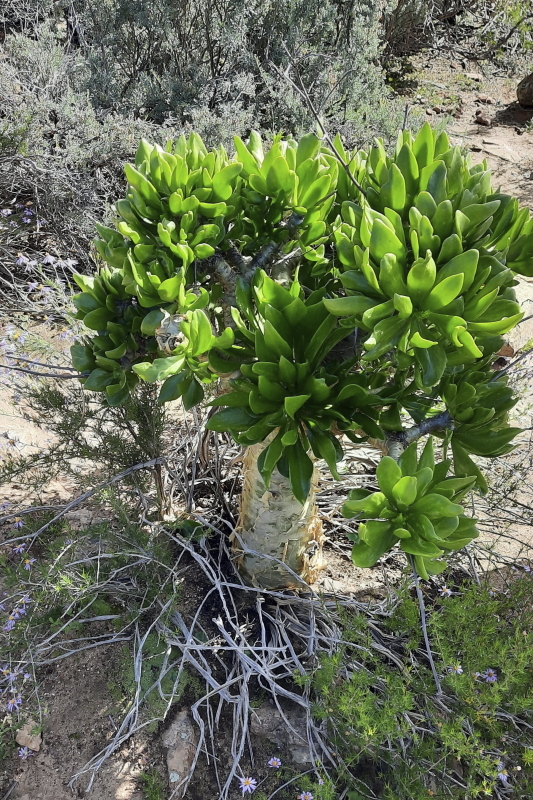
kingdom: Plantae
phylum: Tracheophyta
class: Magnoliopsida
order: Saxifragales
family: Crassulaceae
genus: Tylecodon
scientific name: Tylecodon paniculatus
